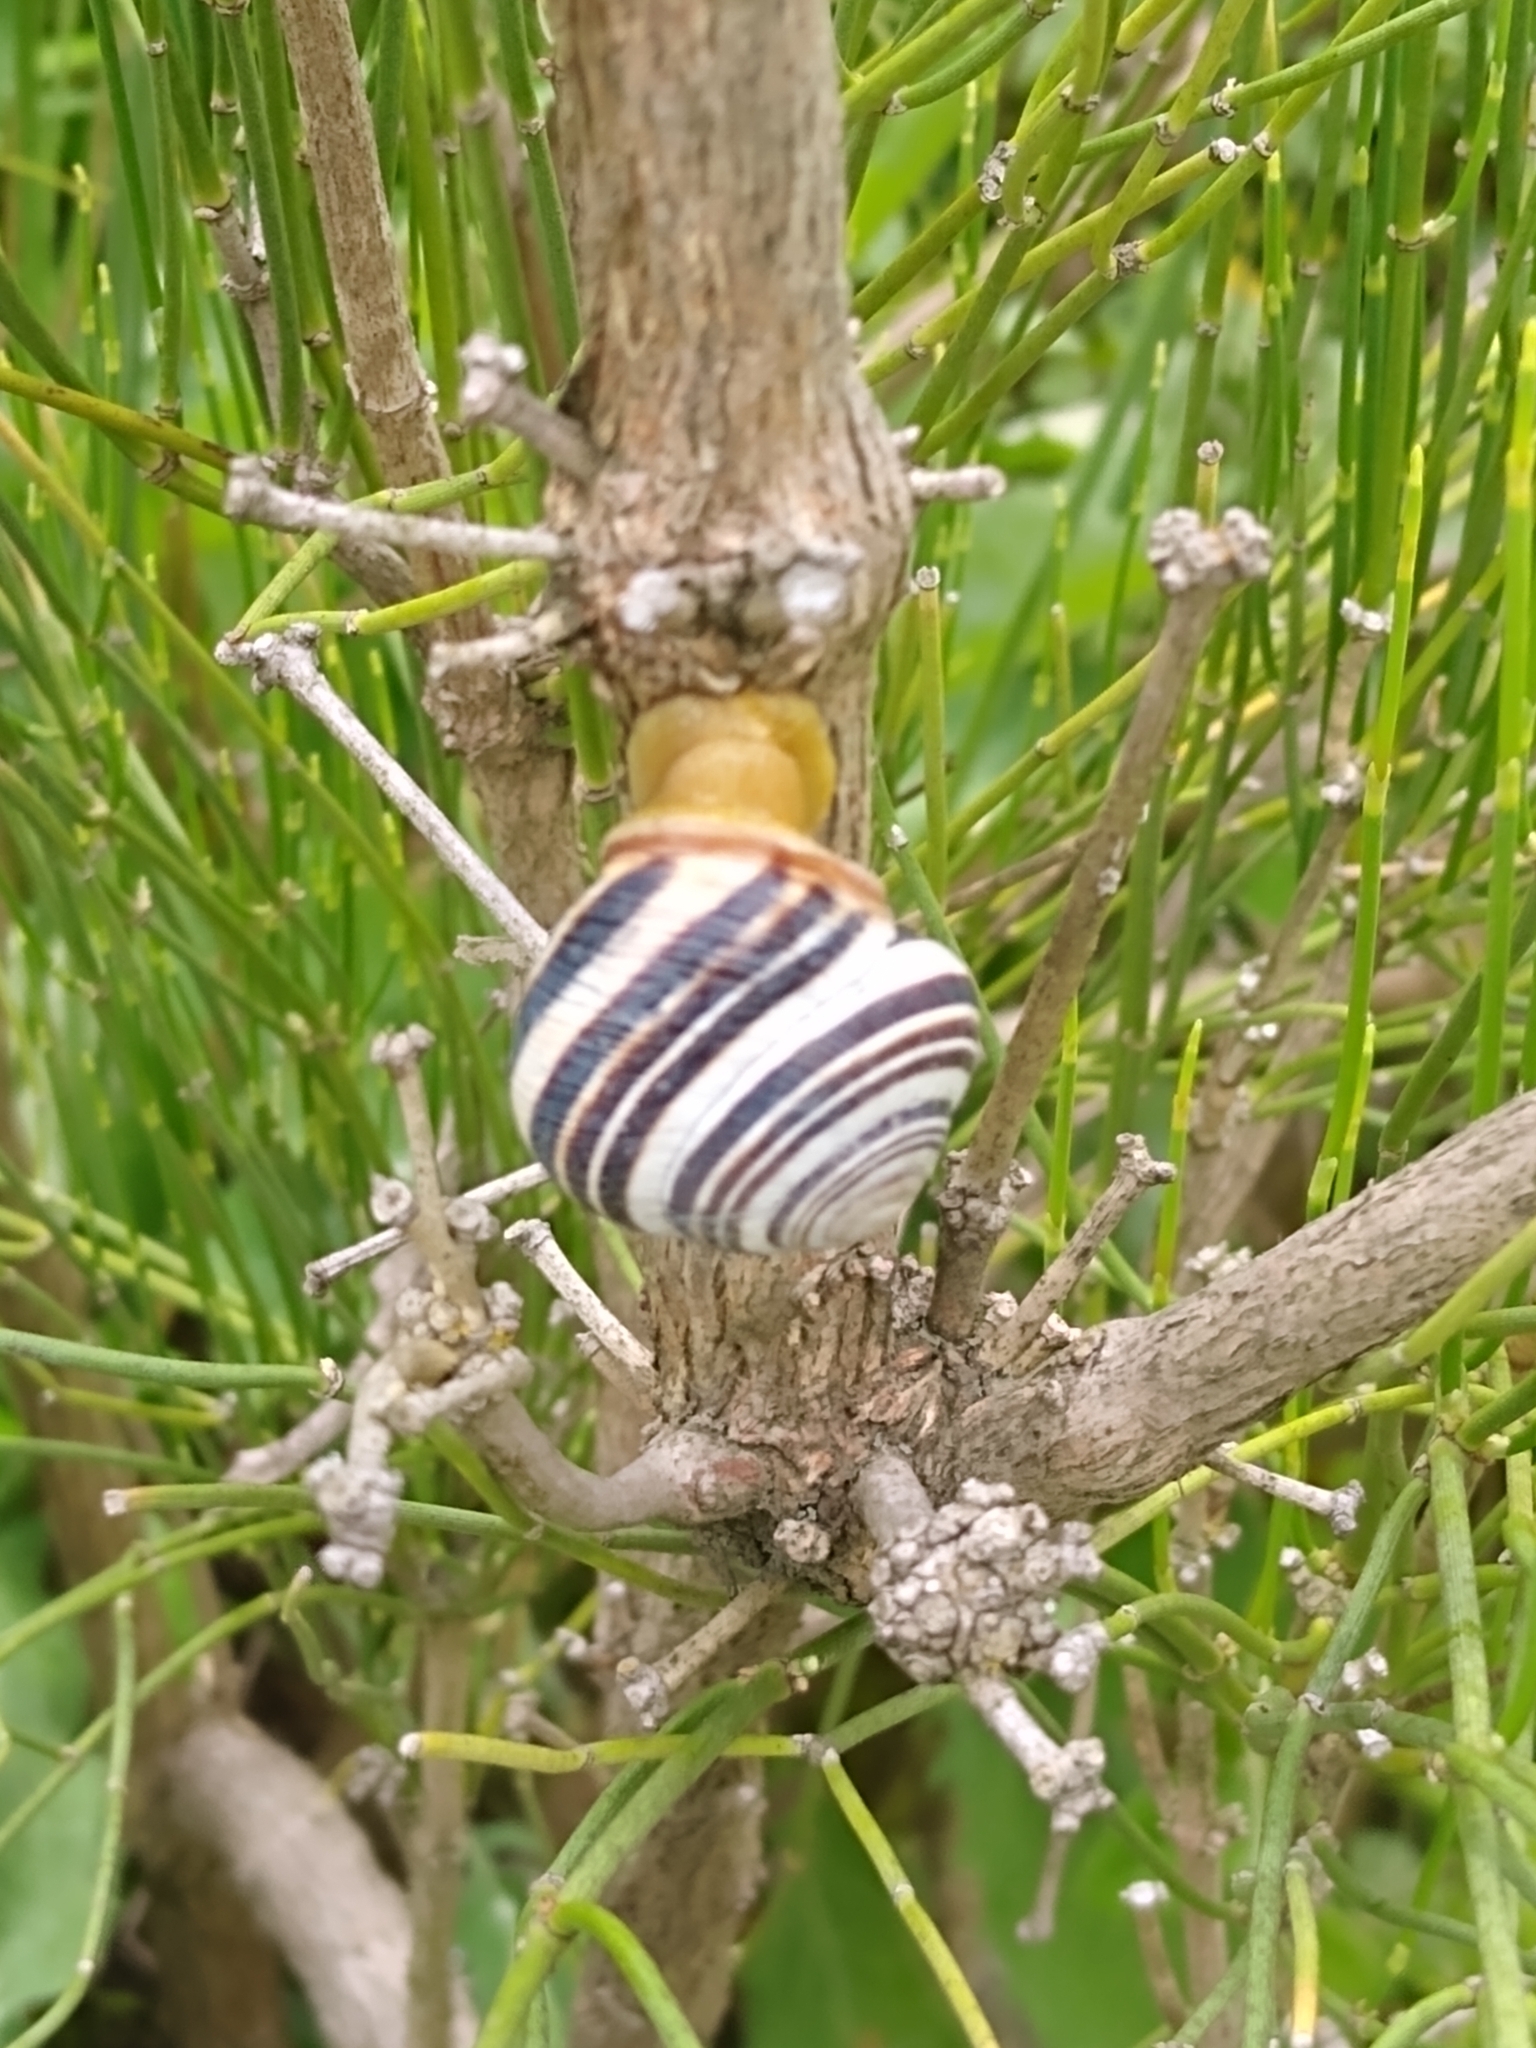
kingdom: Animalia
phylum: Mollusca
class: Gastropoda
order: Stylommatophora
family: Helicidae
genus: Caucasotachea
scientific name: Caucasotachea vindobonensis
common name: European helicid land snail
